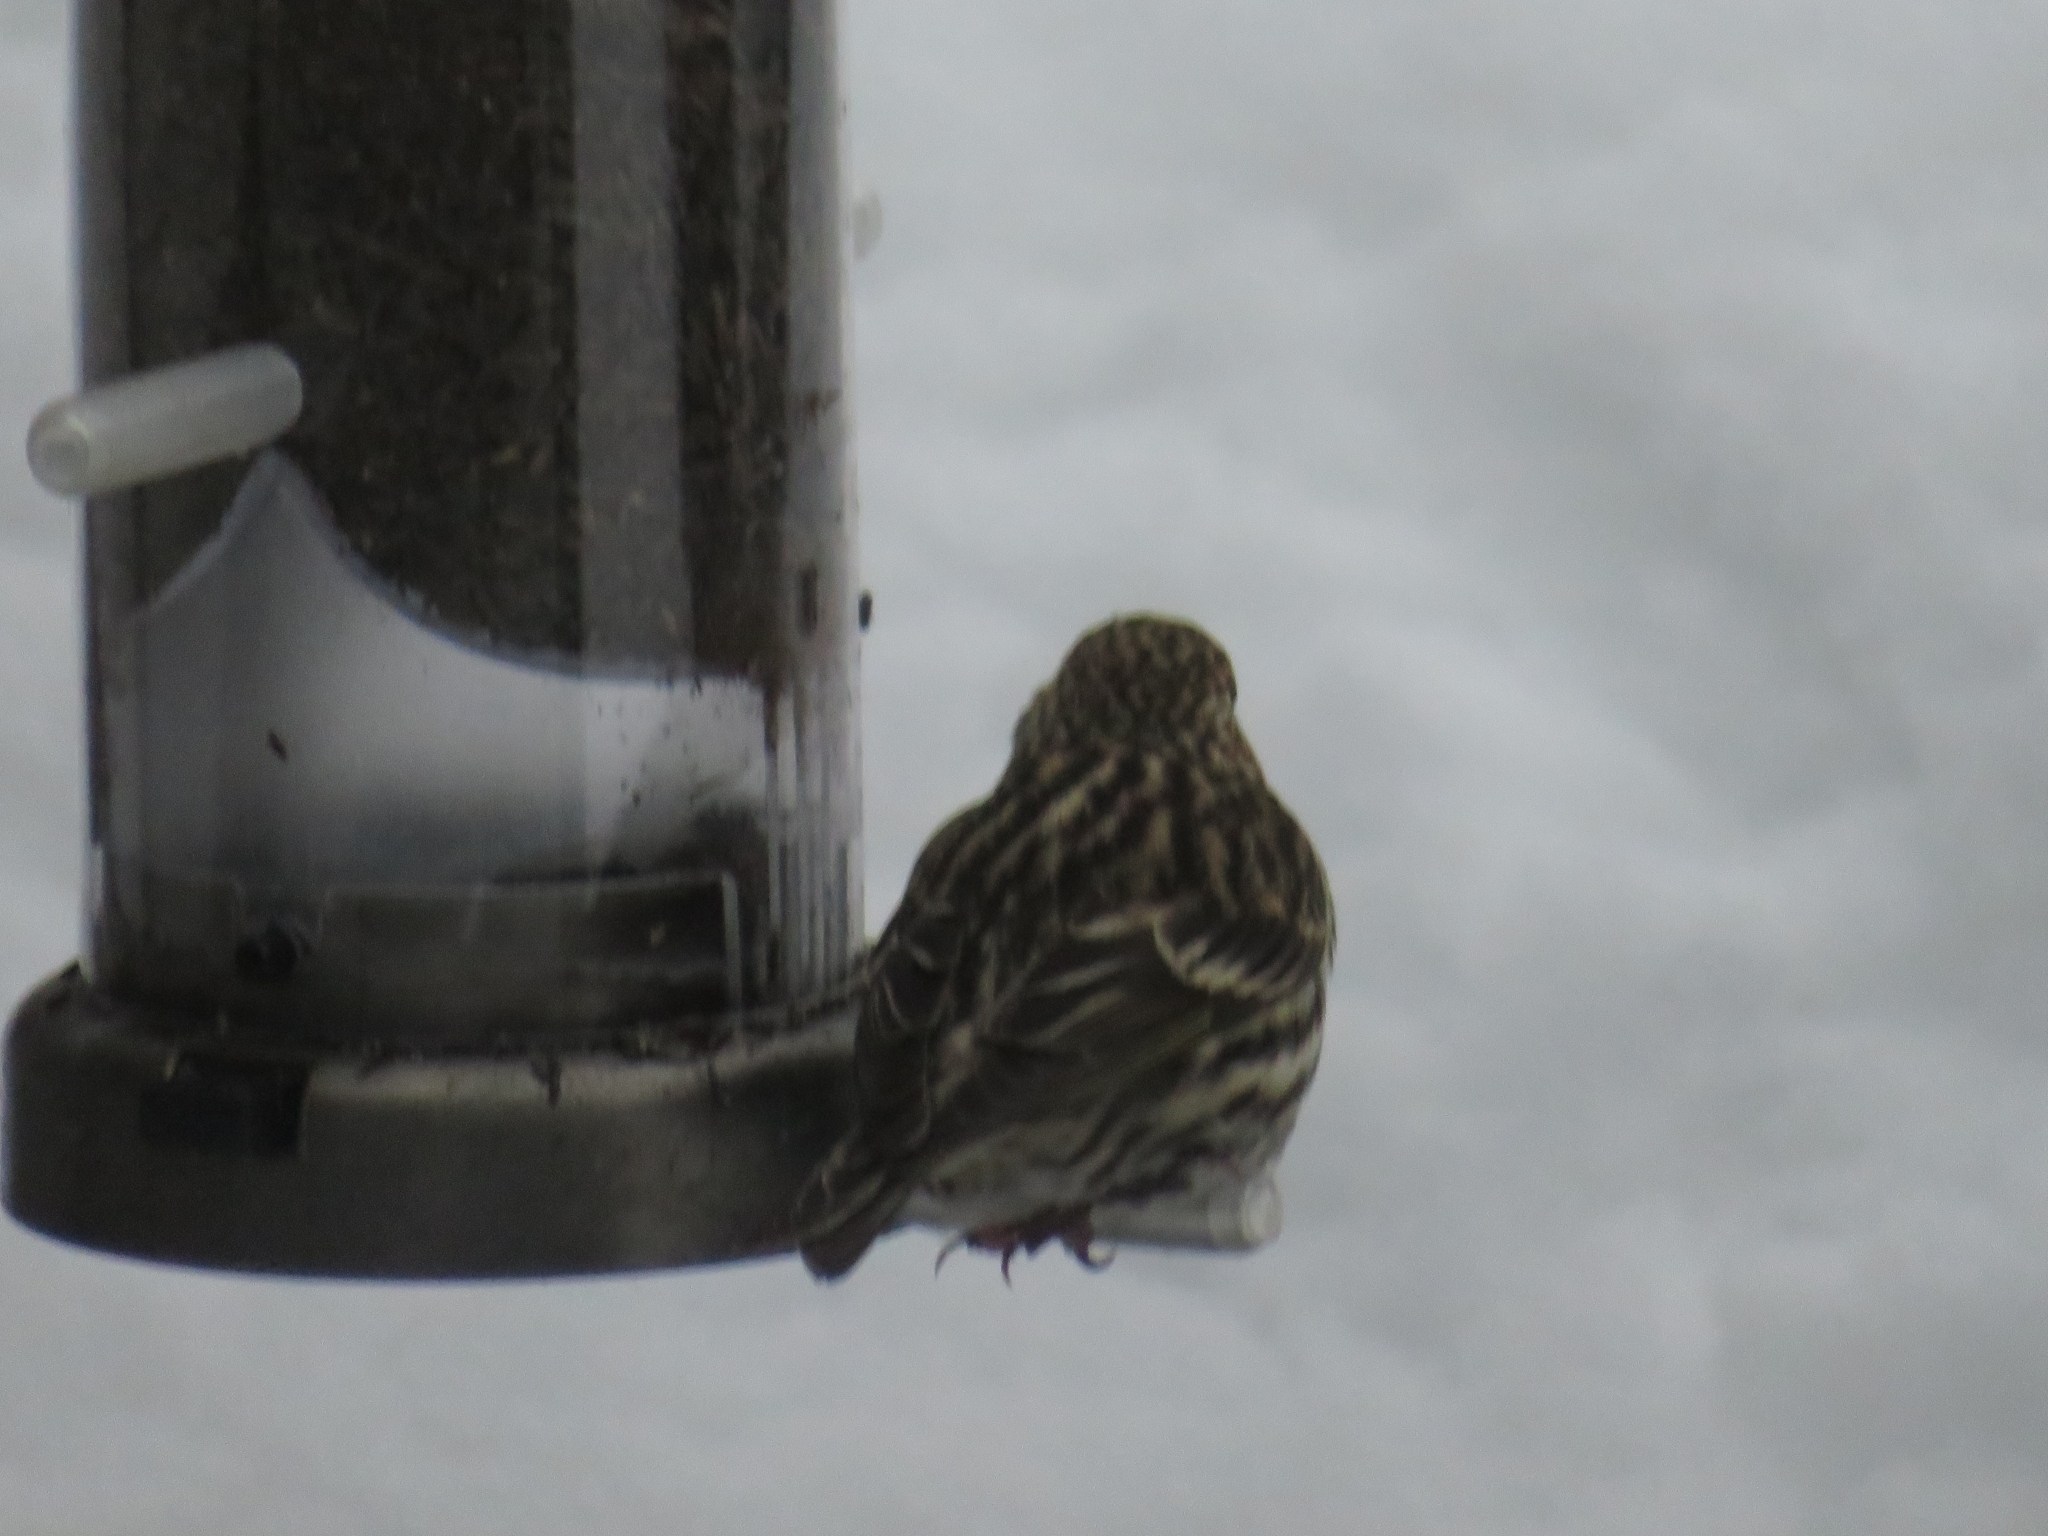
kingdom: Animalia
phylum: Chordata
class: Aves
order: Passeriformes
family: Fringillidae
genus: Spinus
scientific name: Spinus pinus
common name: Pine siskin
